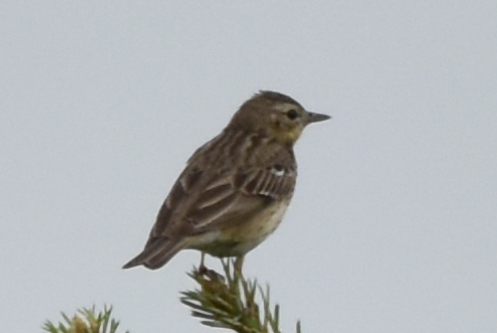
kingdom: Animalia
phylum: Chordata
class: Aves
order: Passeriformes
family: Motacillidae
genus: Anthus
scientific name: Anthus trivialis
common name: Tree pipit
